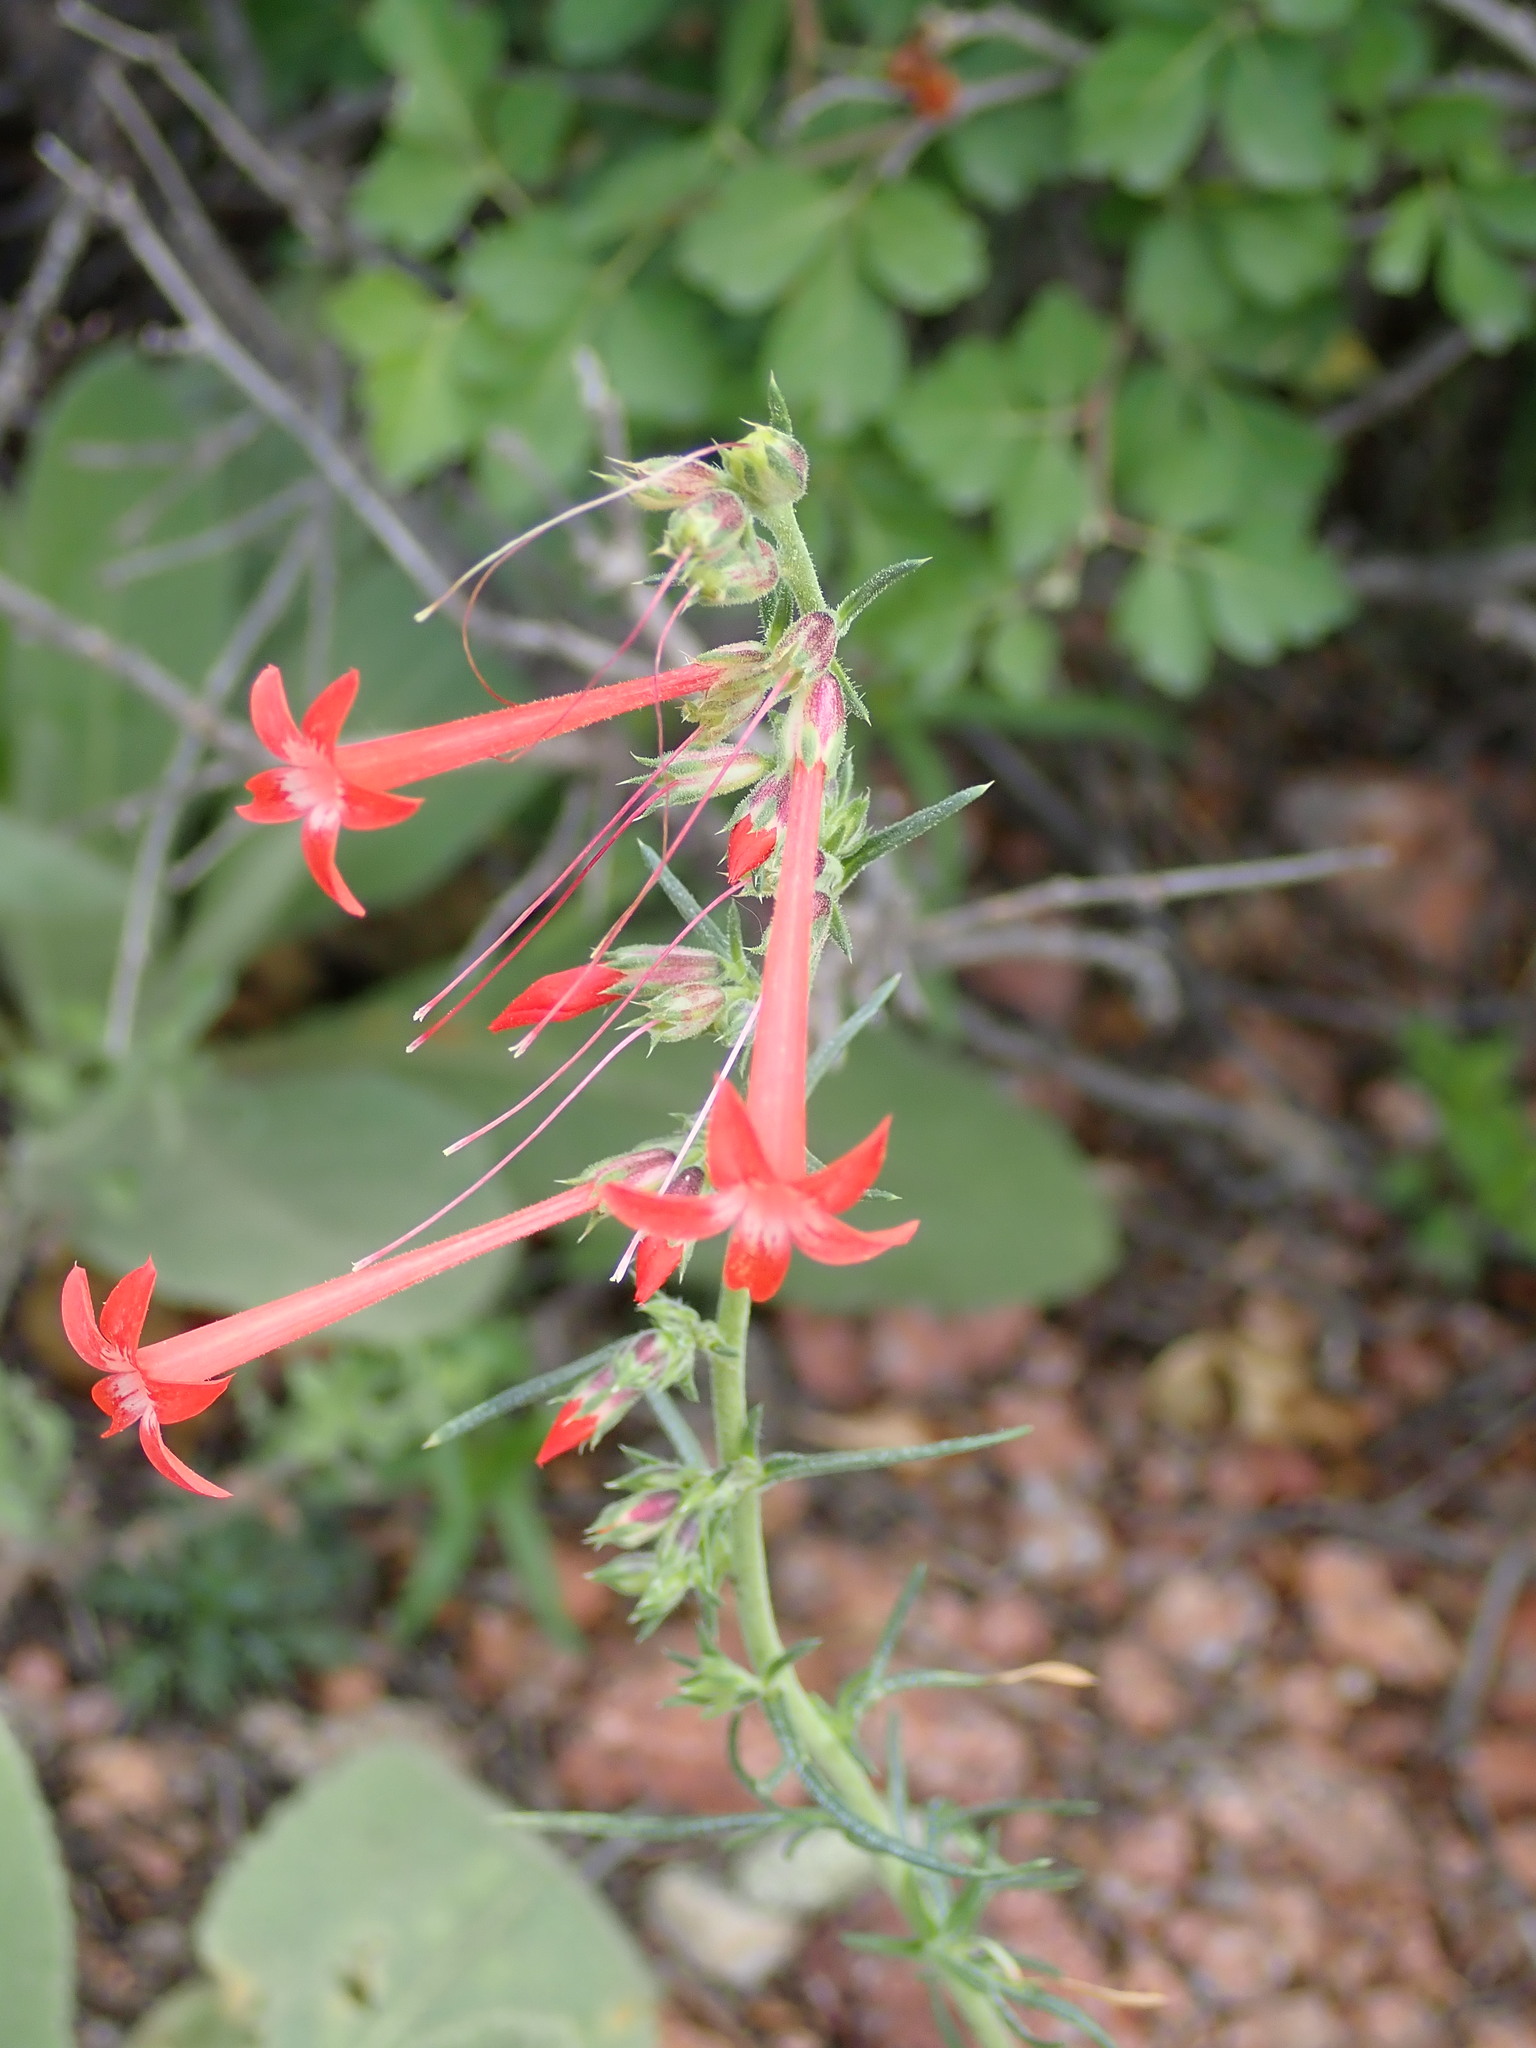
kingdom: Plantae
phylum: Tracheophyta
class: Magnoliopsida
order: Ericales
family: Polemoniaceae
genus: Ipomopsis
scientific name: Ipomopsis aggregata
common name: Scarlet gilia
